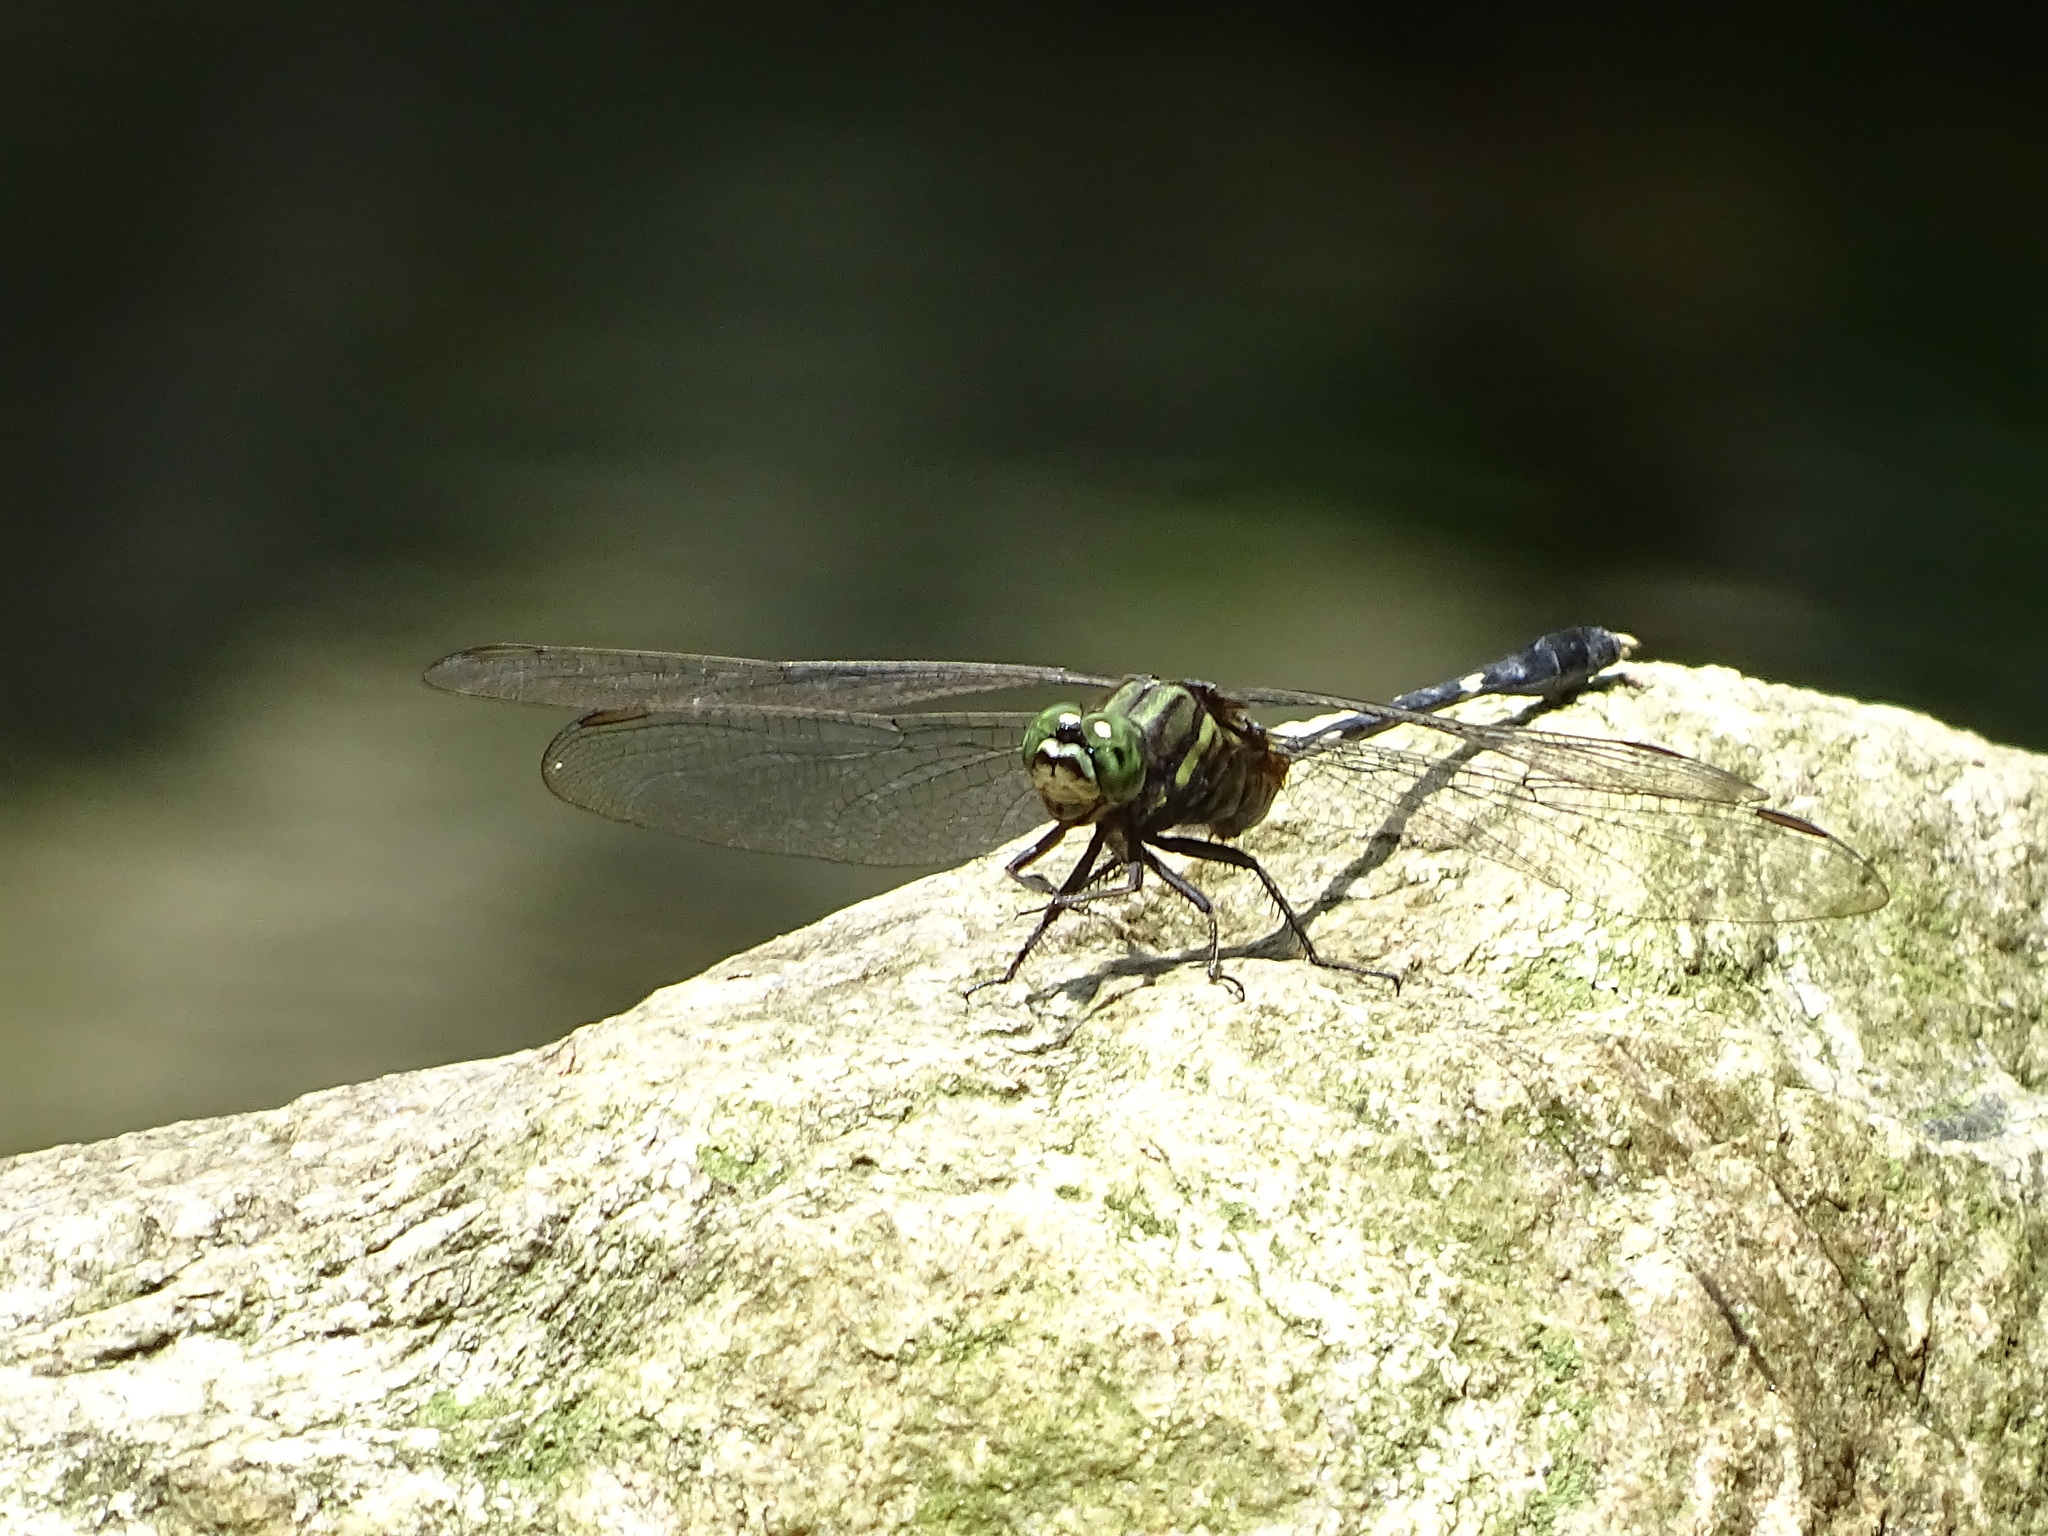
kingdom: Animalia
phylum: Arthropoda
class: Insecta
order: Odonata
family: Libellulidae
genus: Orthetrum
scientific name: Orthetrum sabina
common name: Slender skimmer
